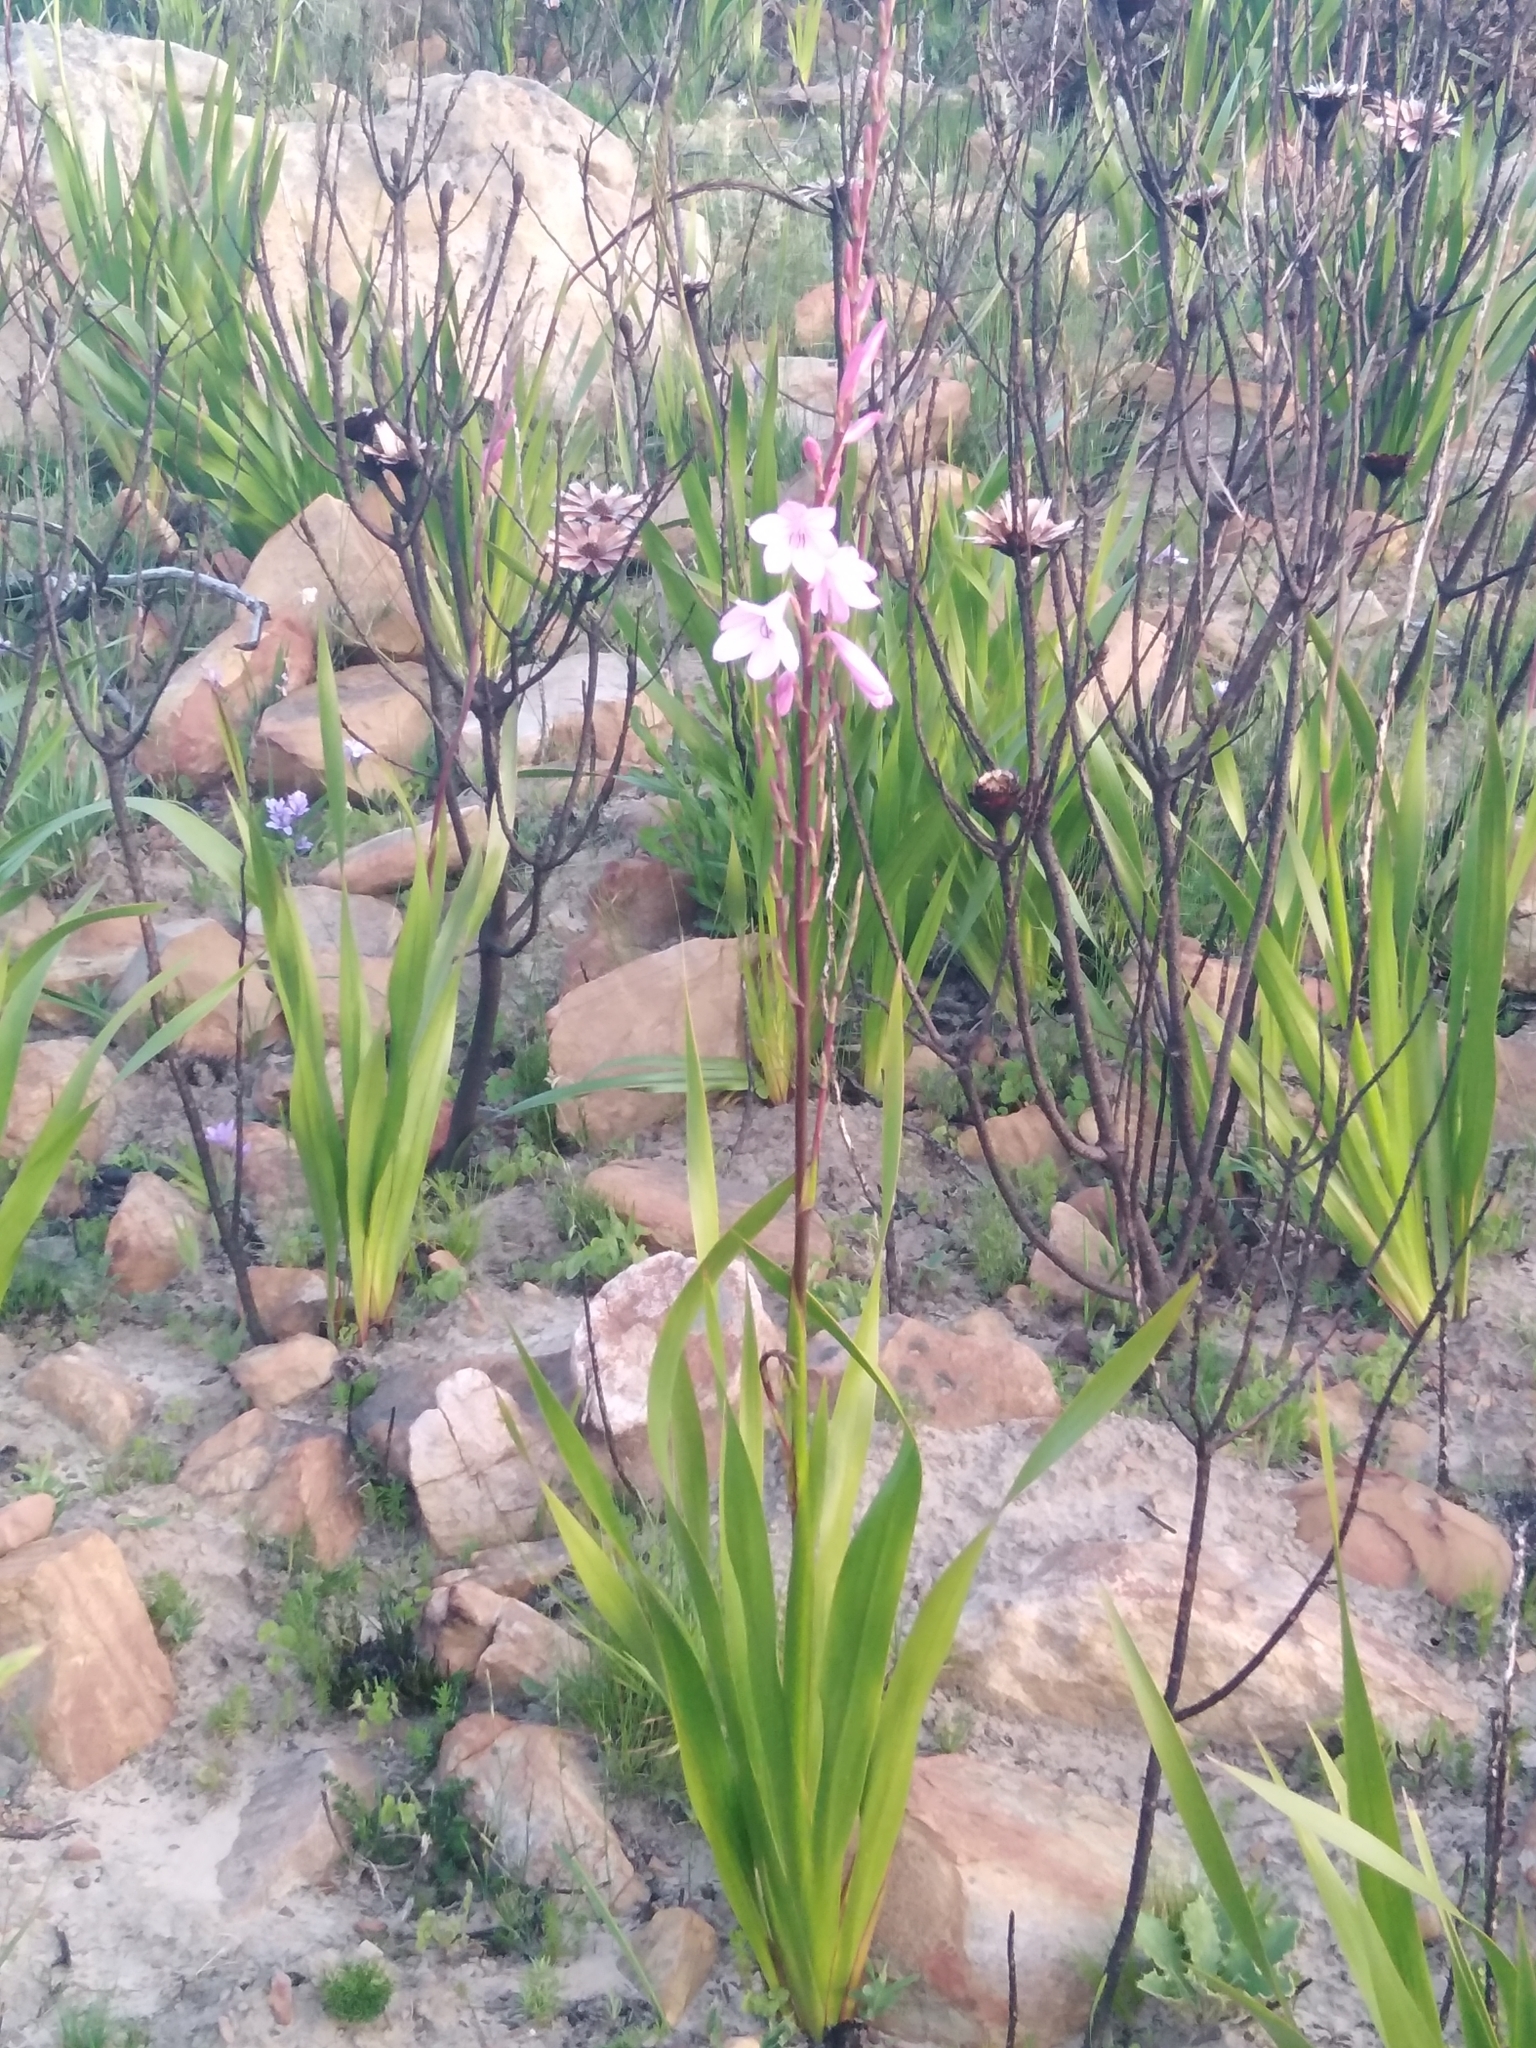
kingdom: Plantae
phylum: Tracheophyta
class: Liliopsida
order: Asparagales
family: Iridaceae
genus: Watsonia
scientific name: Watsonia borbonica
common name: Bugle-lily
